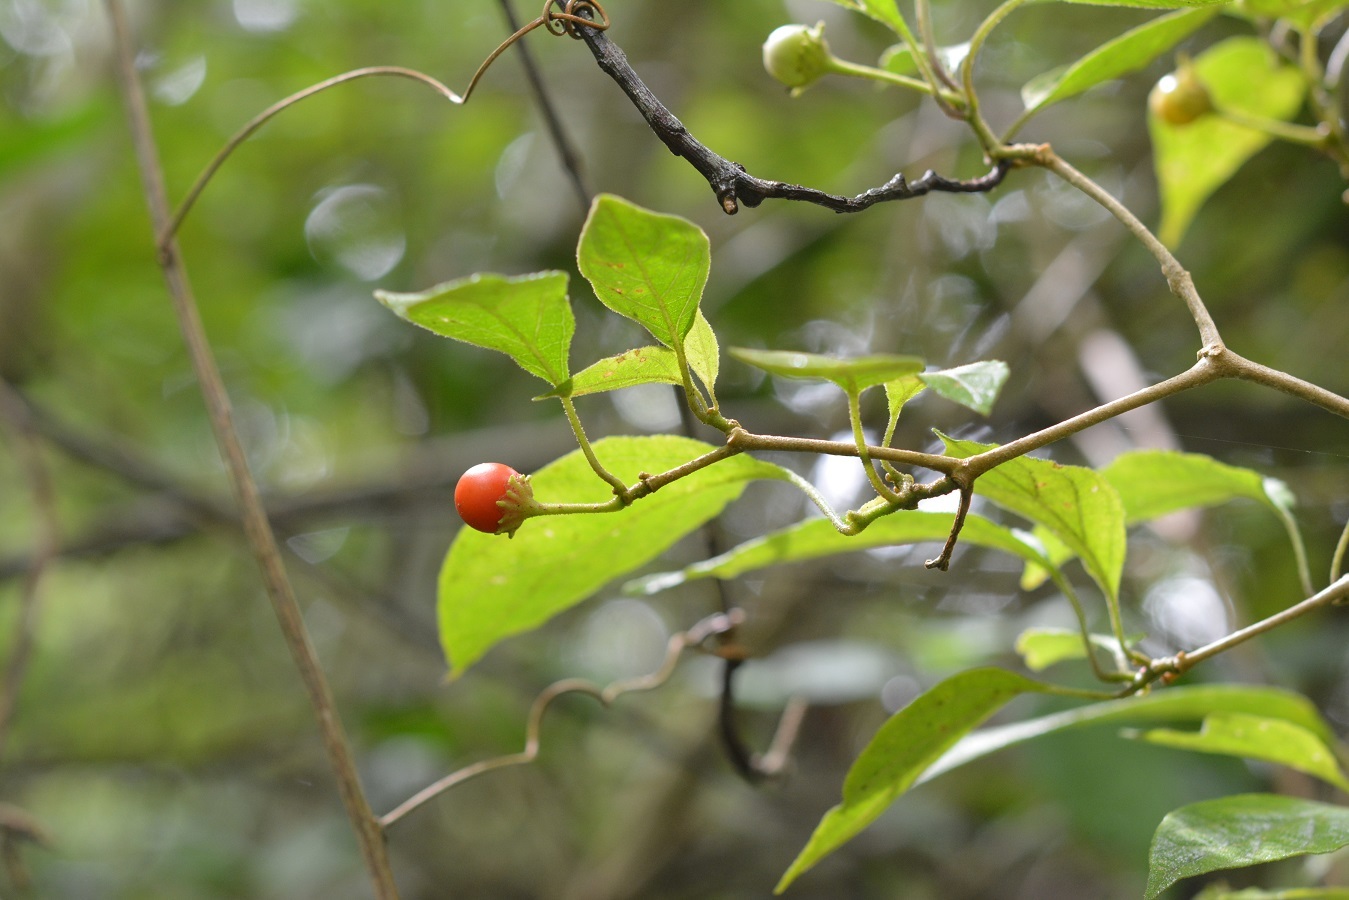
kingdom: Plantae
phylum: Tracheophyta
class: Magnoliopsida
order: Solanales
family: Solanaceae
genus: Lycianthes
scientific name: Lycianthes sideroxyloides
